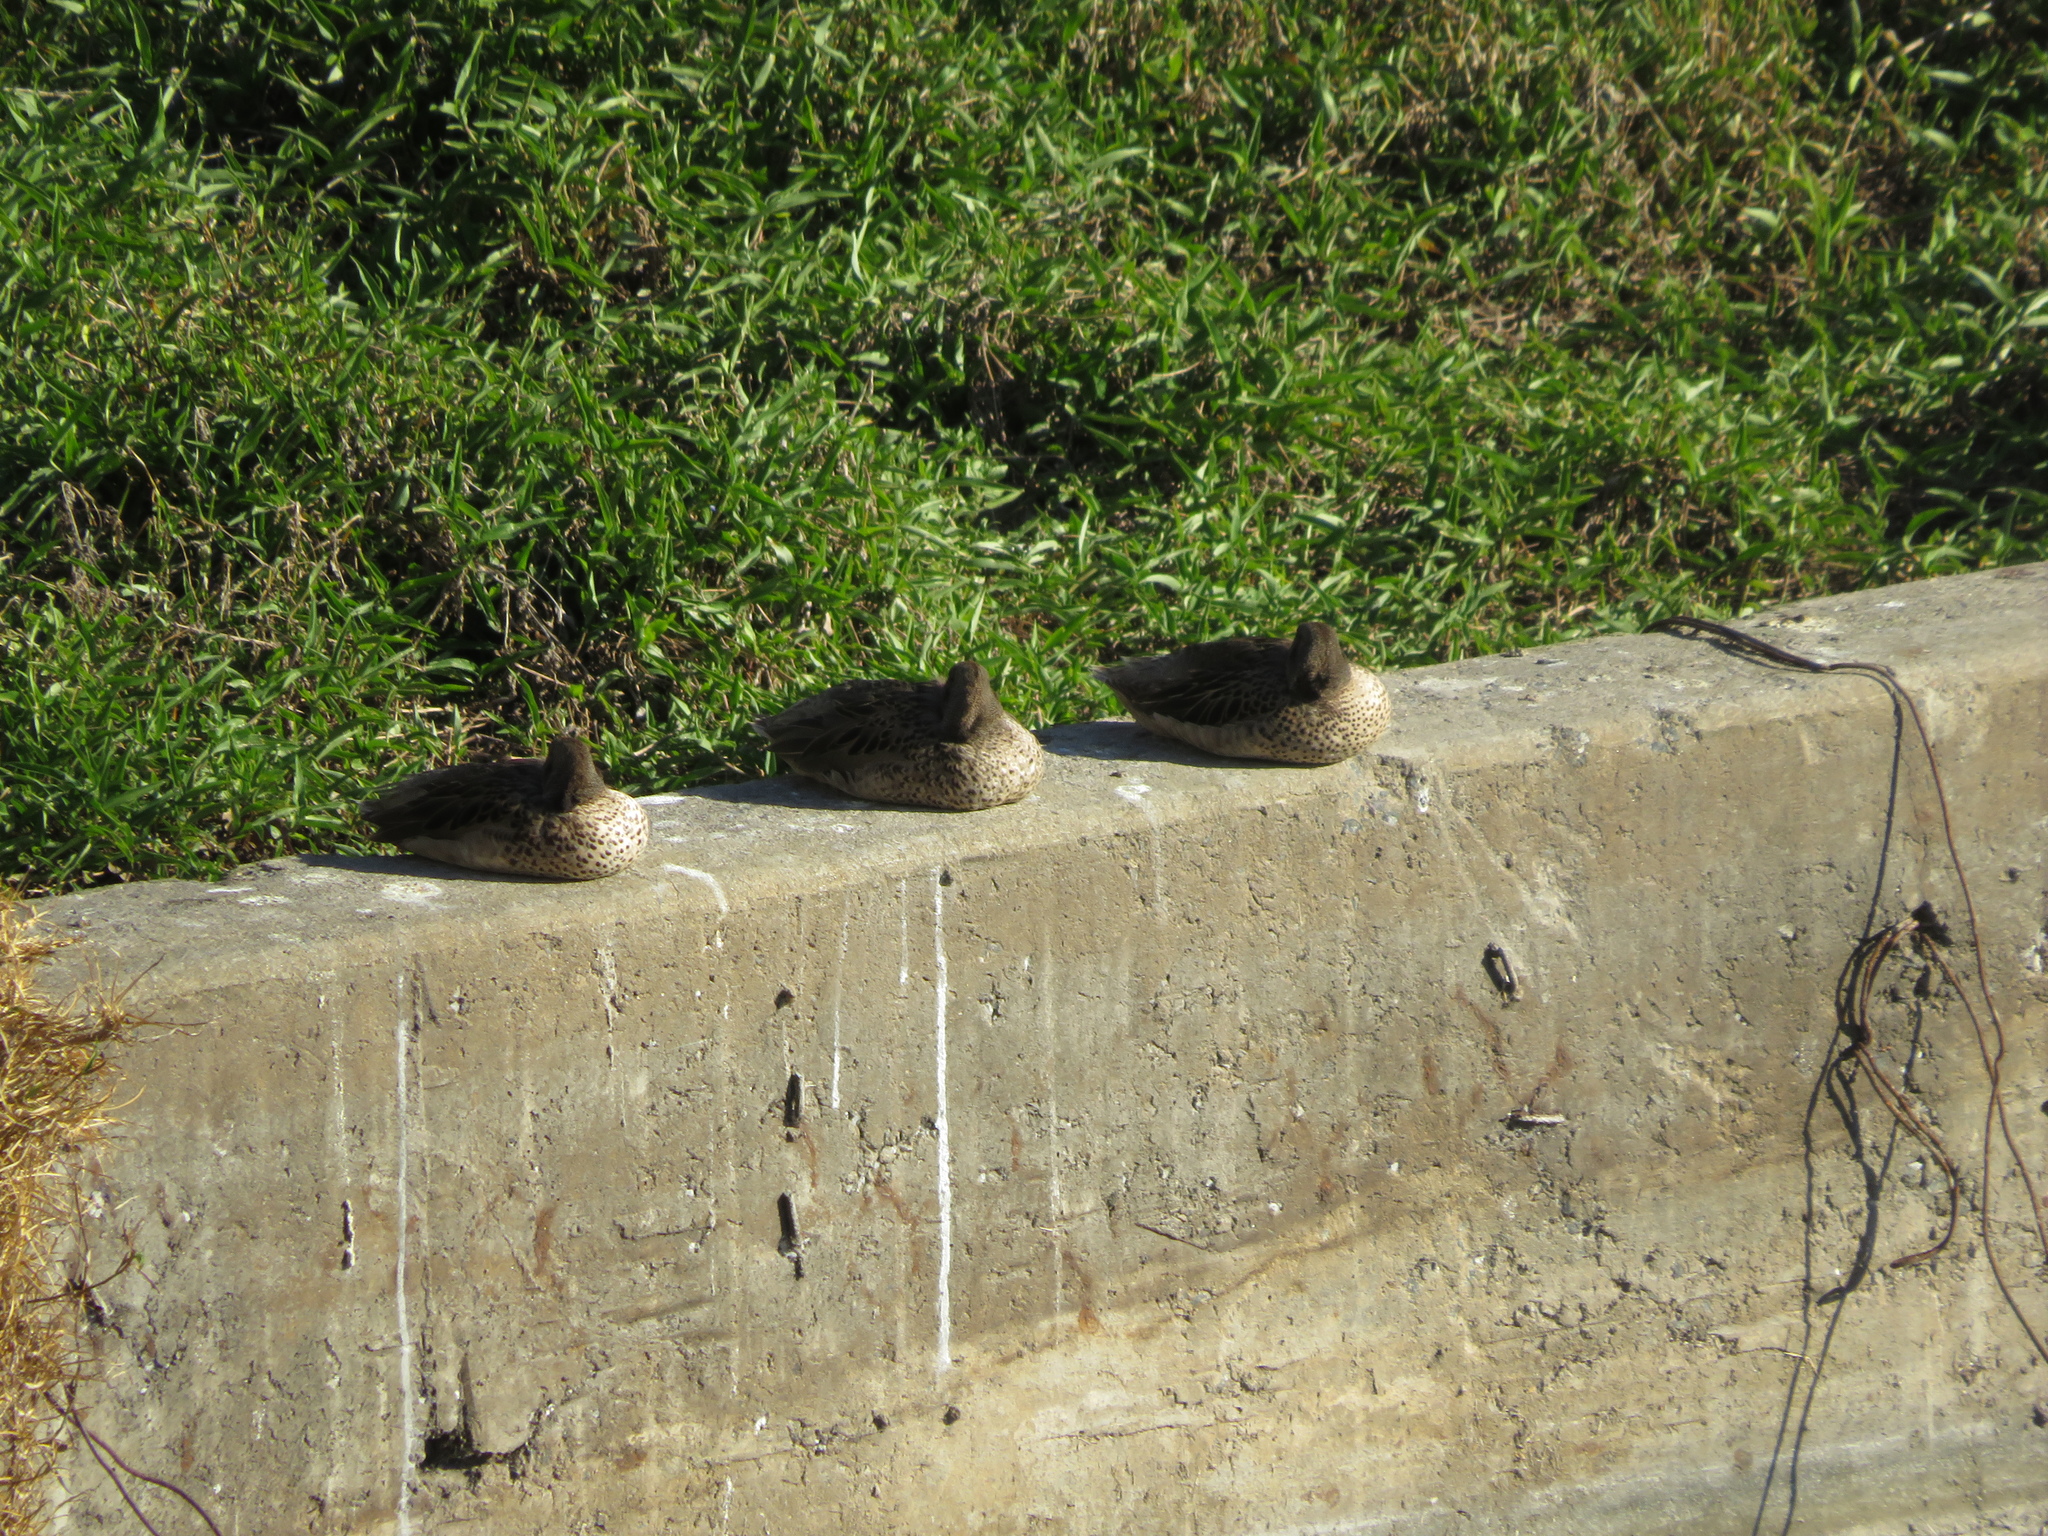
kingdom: Animalia
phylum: Chordata
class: Aves
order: Anseriformes
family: Anatidae
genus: Anas
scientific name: Anas flavirostris
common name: Yellow-billed teal
